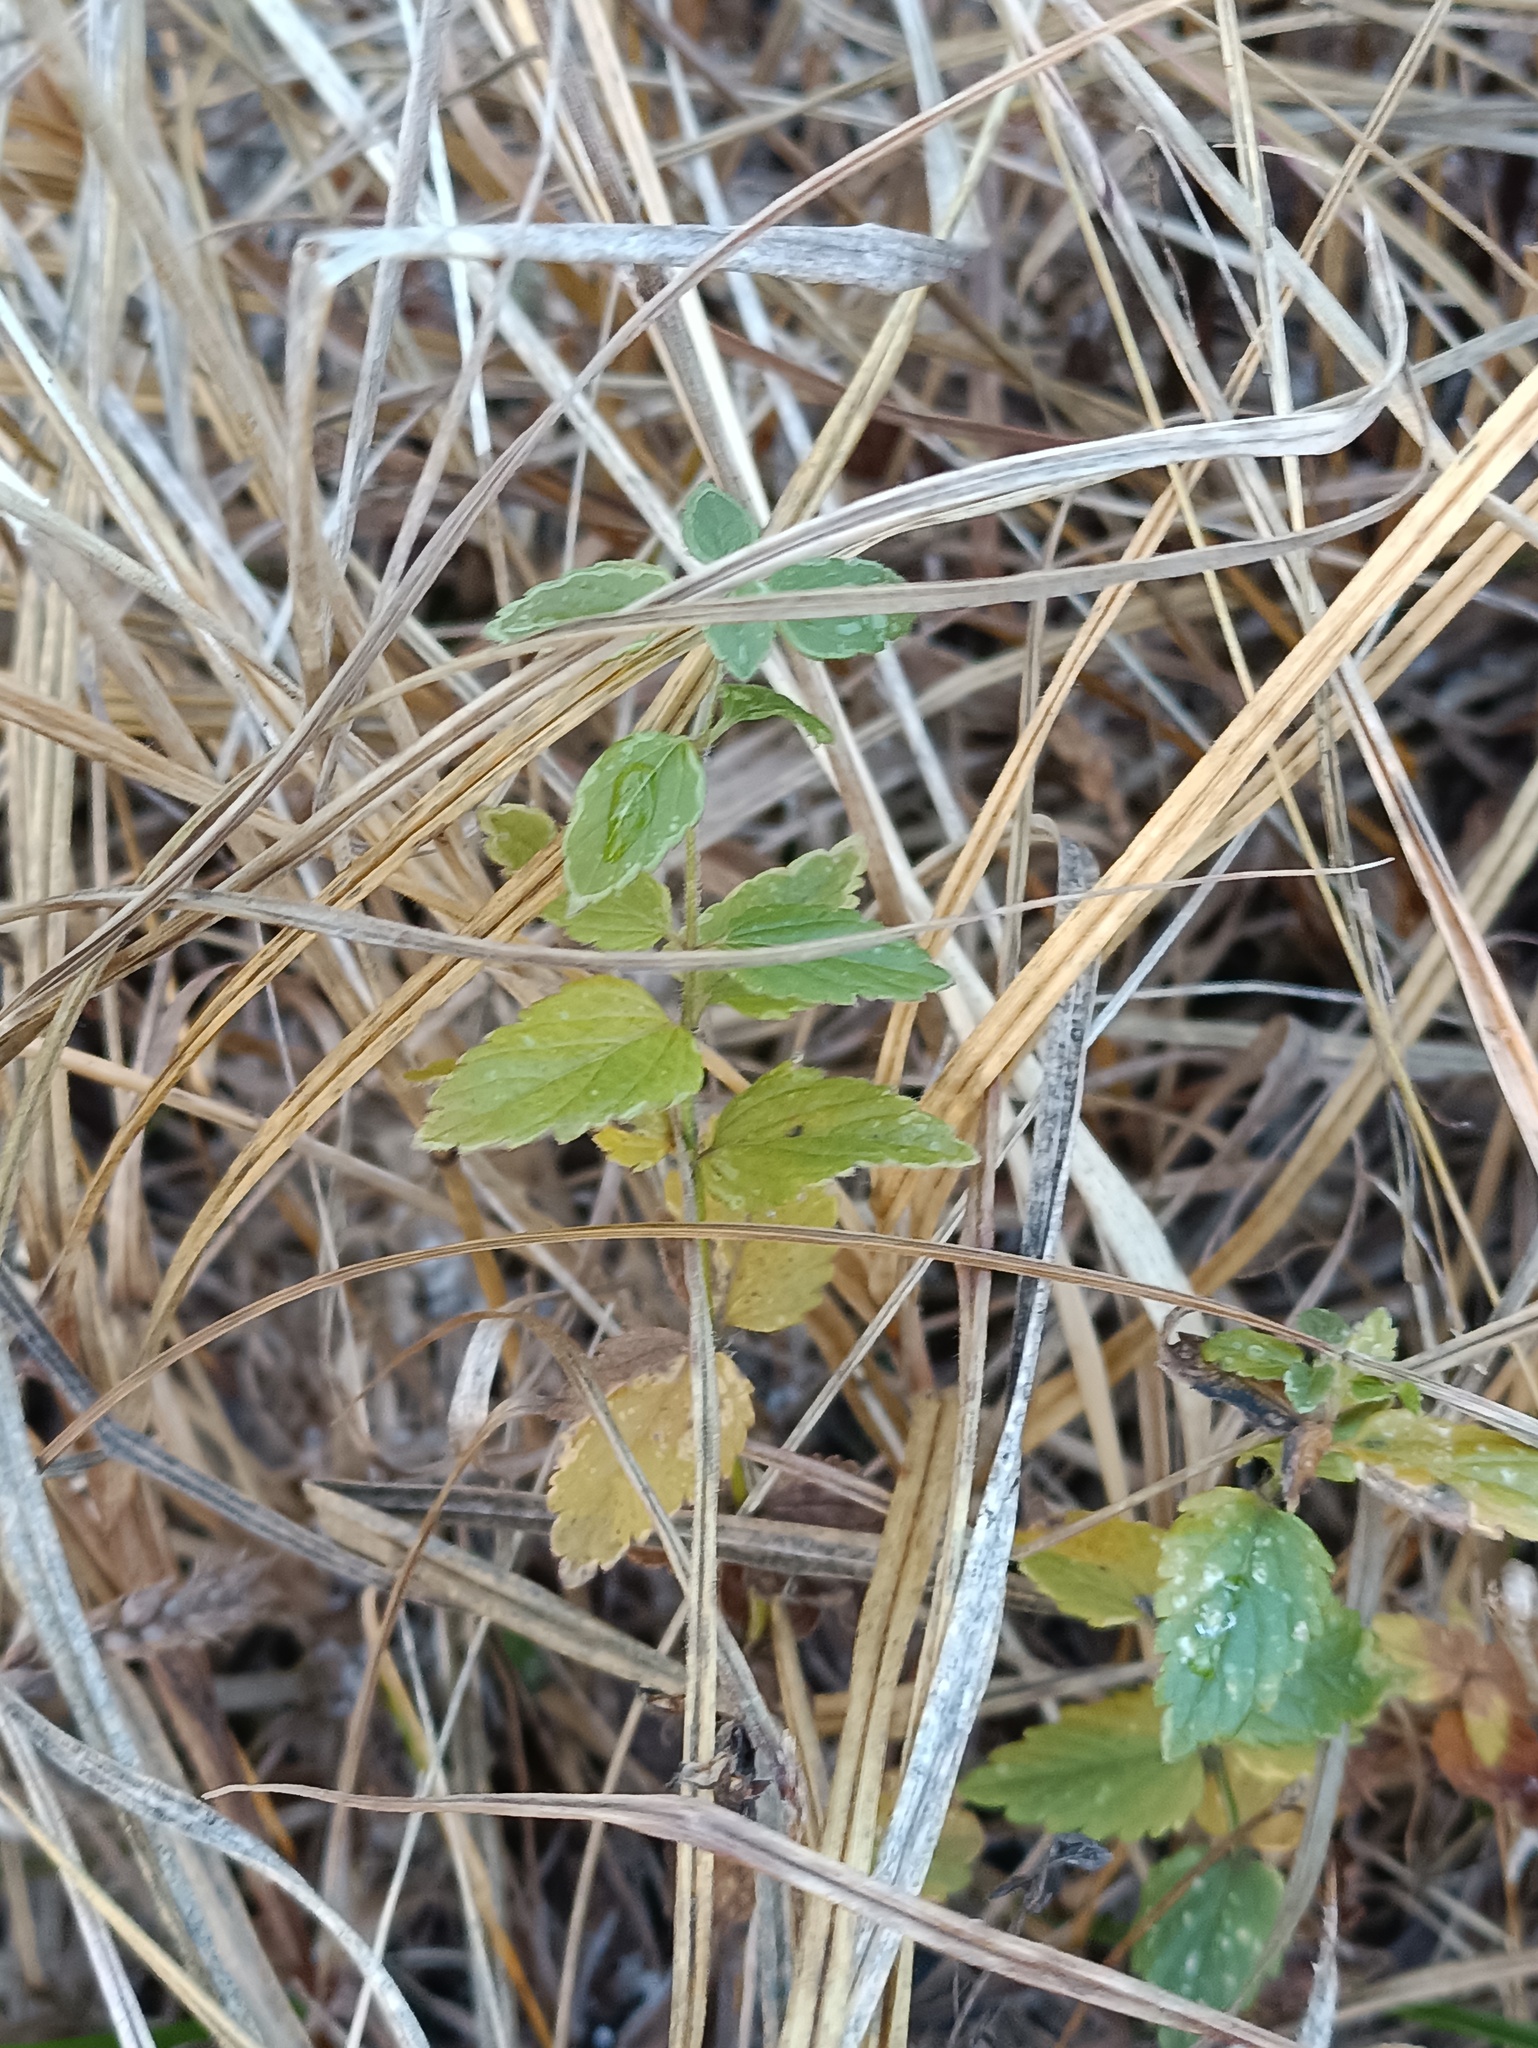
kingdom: Plantae
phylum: Tracheophyta
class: Magnoliopsida
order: Lamiales
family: Plantaginaceae
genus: Veronica
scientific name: Veronica chamaedrys
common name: Germander speedwell
